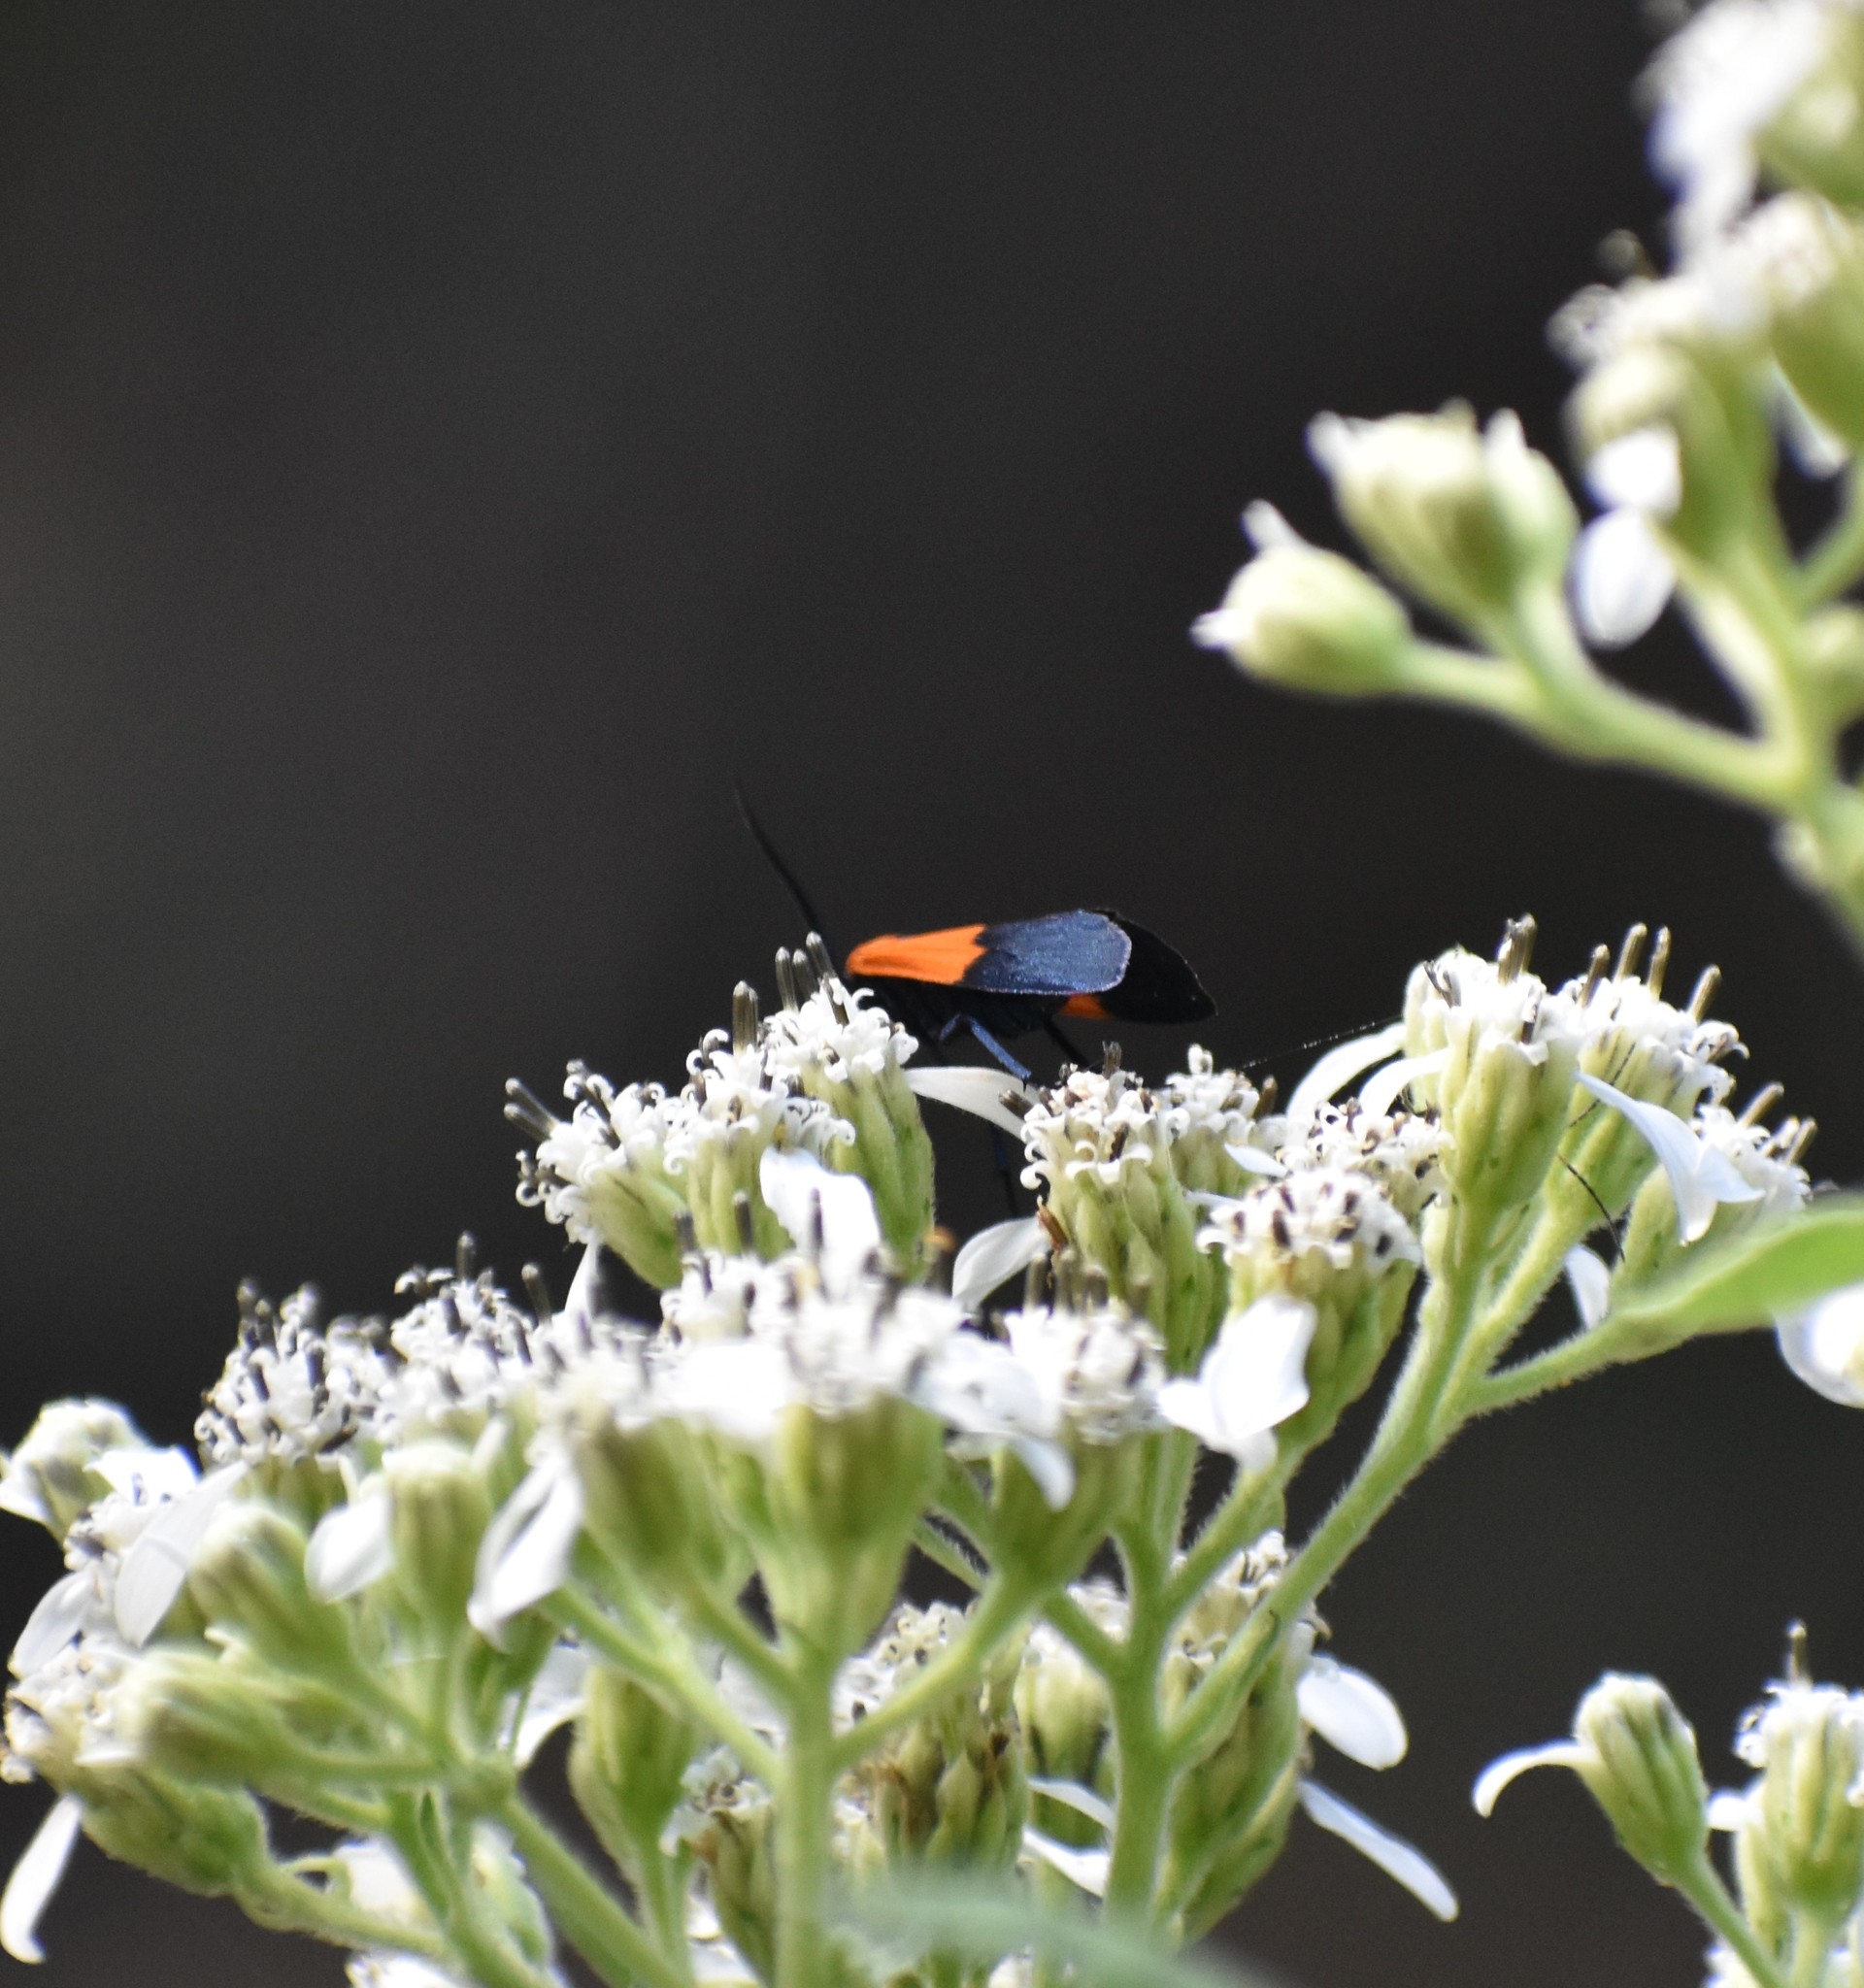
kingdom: Animalia
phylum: Arthropoda
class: Insecta
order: Lepidoptera
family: Erebidae
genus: Lycomorpha
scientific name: Lycomorpha pholus
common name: Black-and-yellow lichen moth
